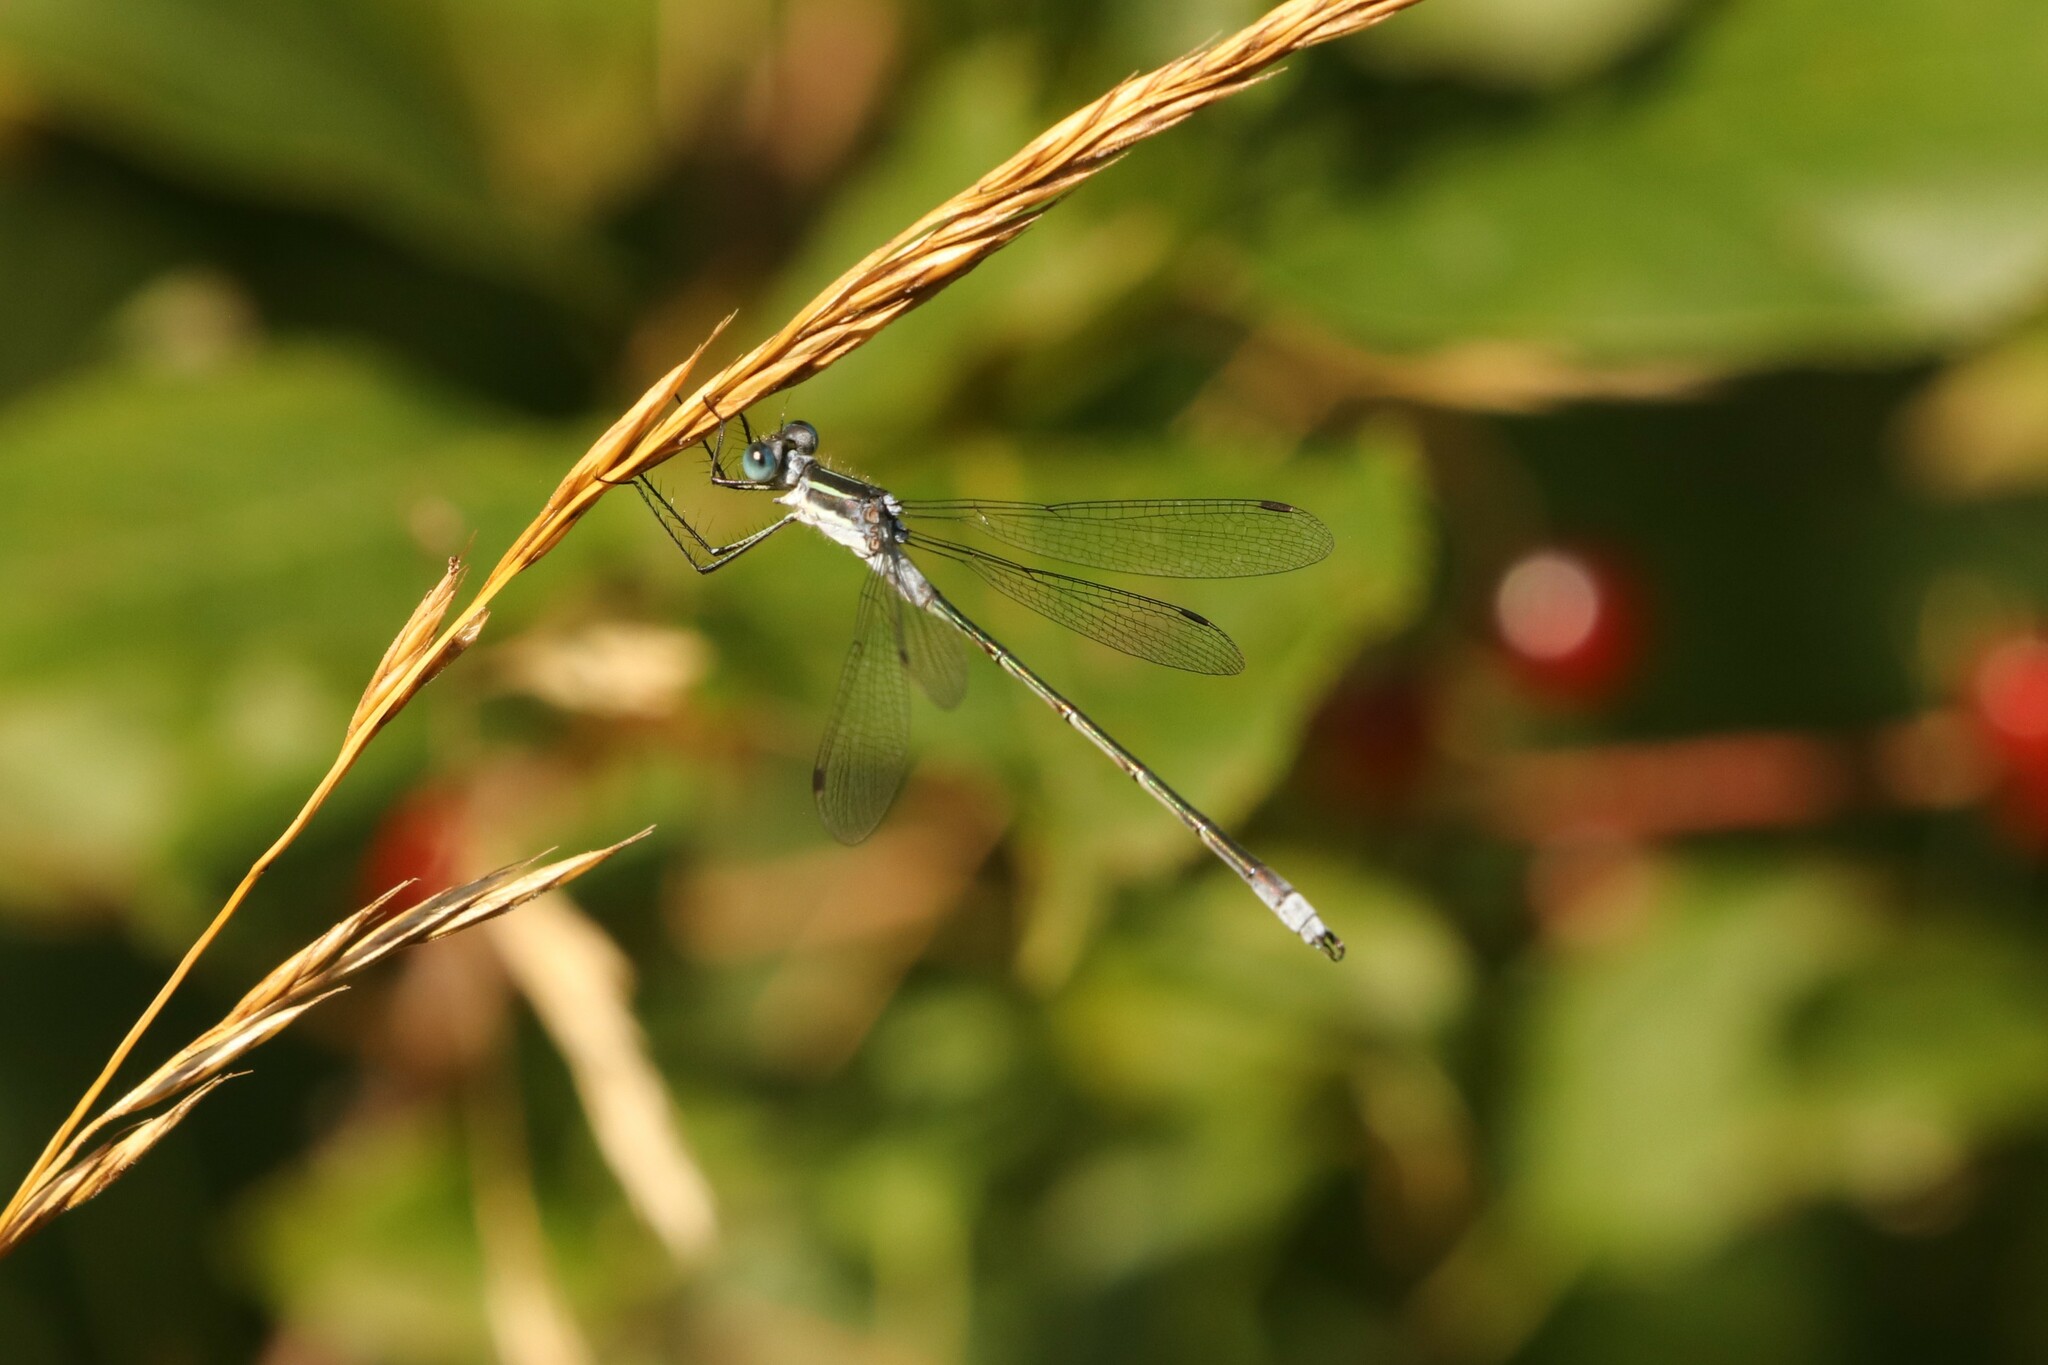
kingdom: Animalia
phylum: Arthropoda
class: Insecta
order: Odonata
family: Lestidae
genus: Lestes
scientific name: Lestes disjunctus
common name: Northern spreadwing
